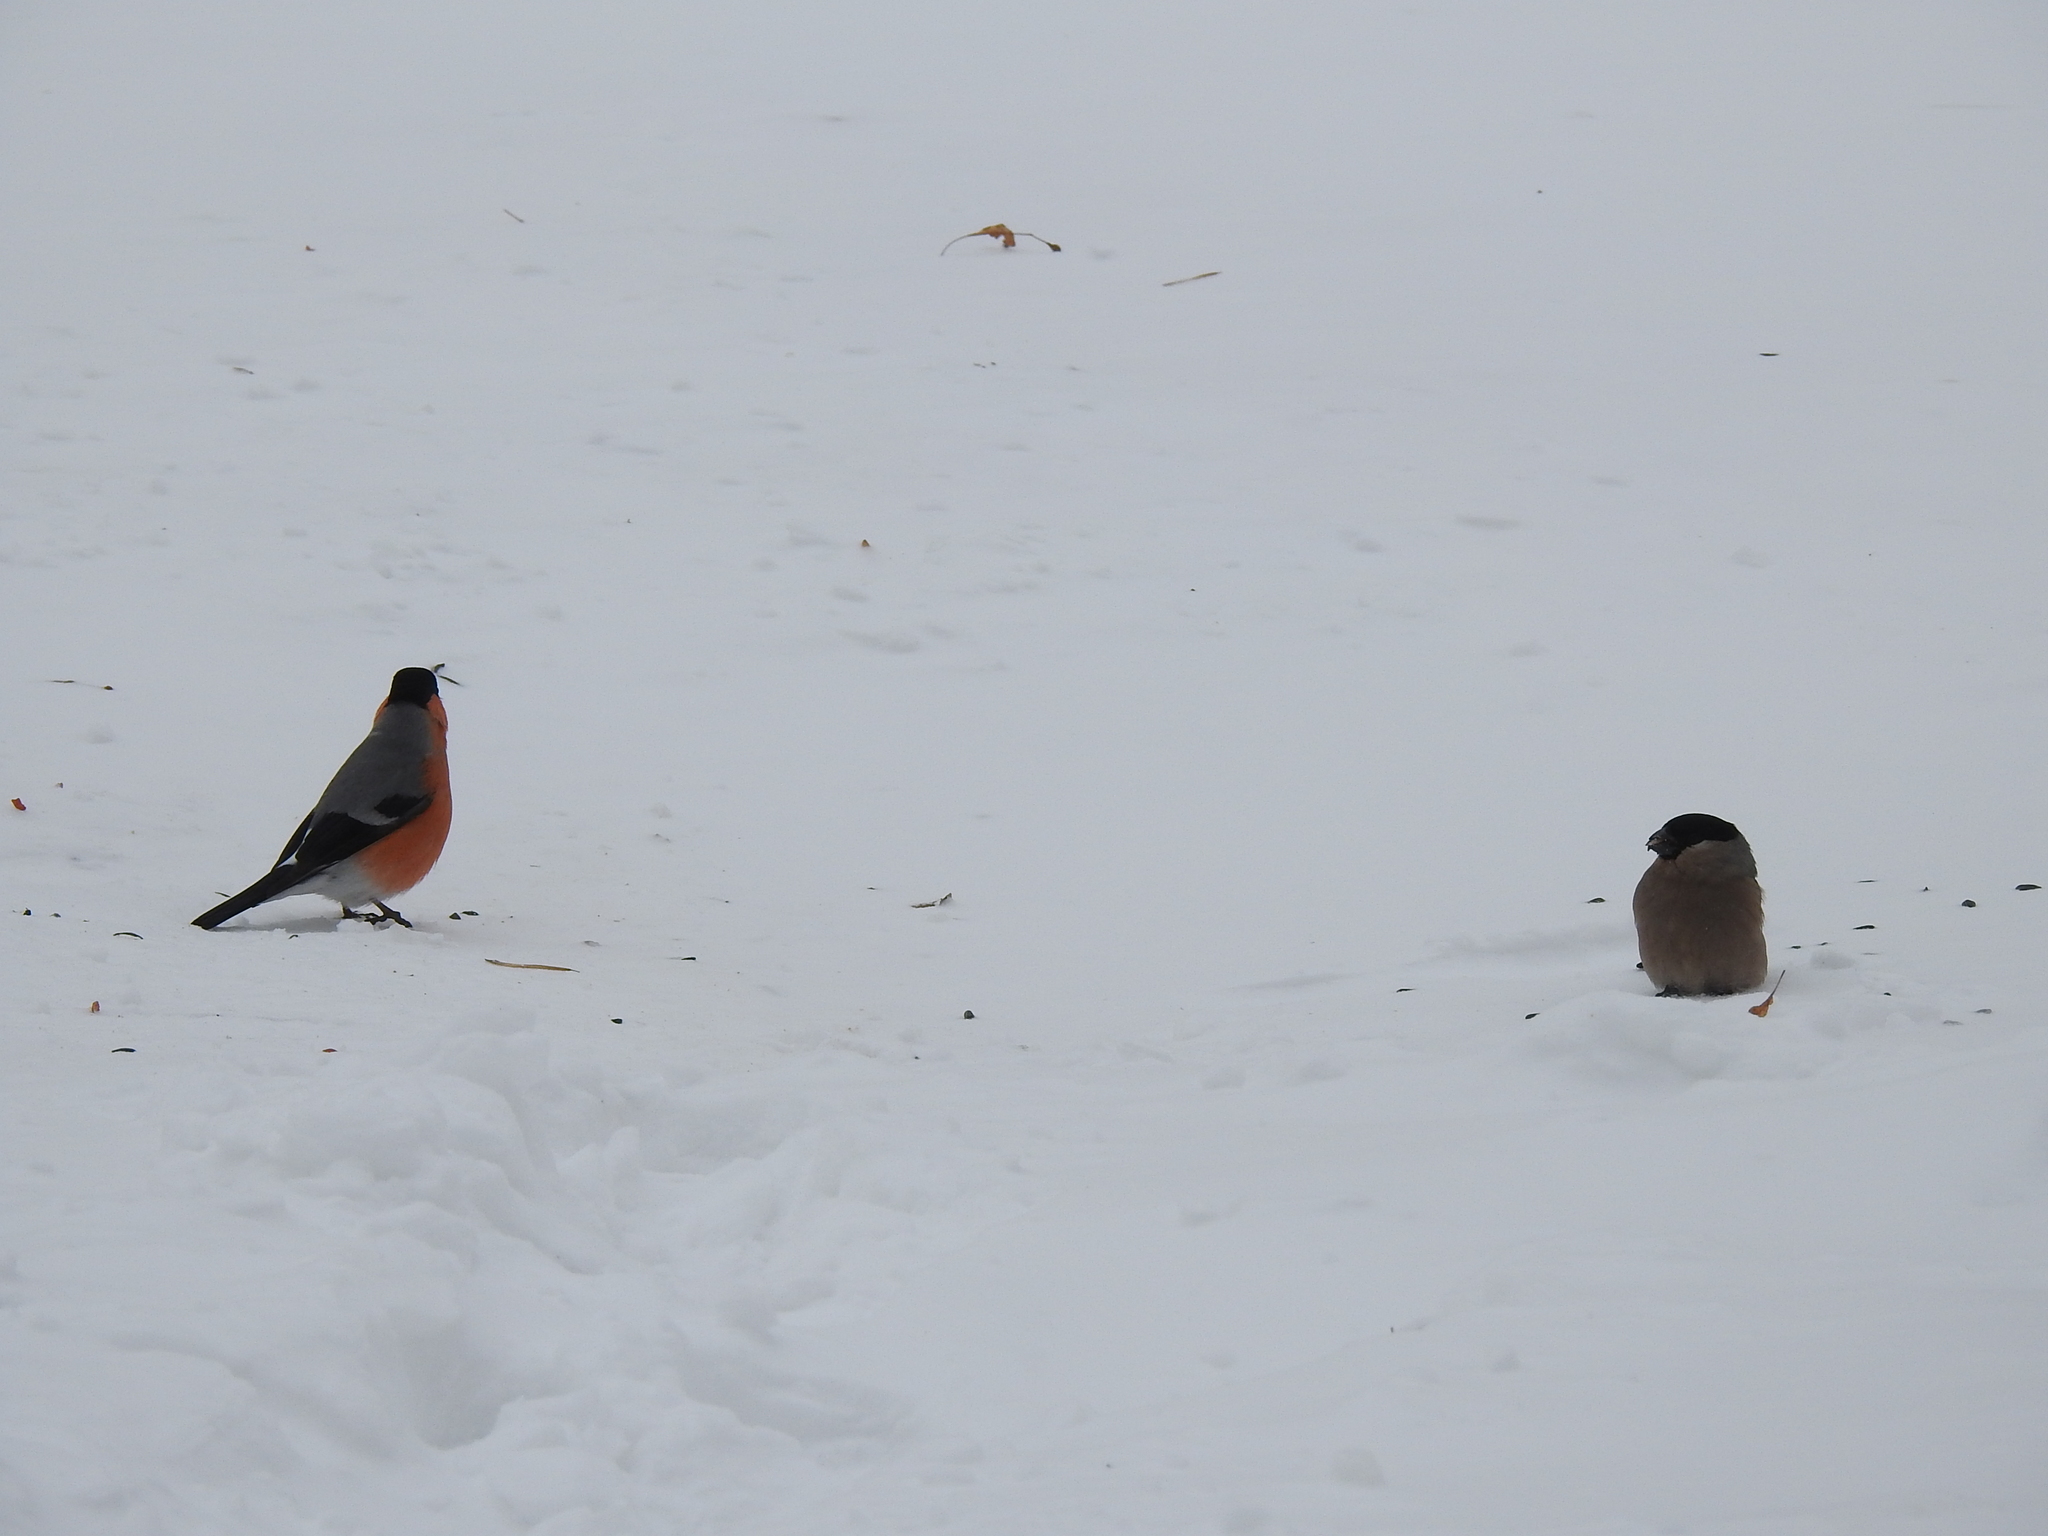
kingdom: Animalia
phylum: Chordata
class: Aves
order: Passeriformes
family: Fringillidae
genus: Pyrrhula
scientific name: Pyrrhula pyrrhula
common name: Eurasian bullfinch
